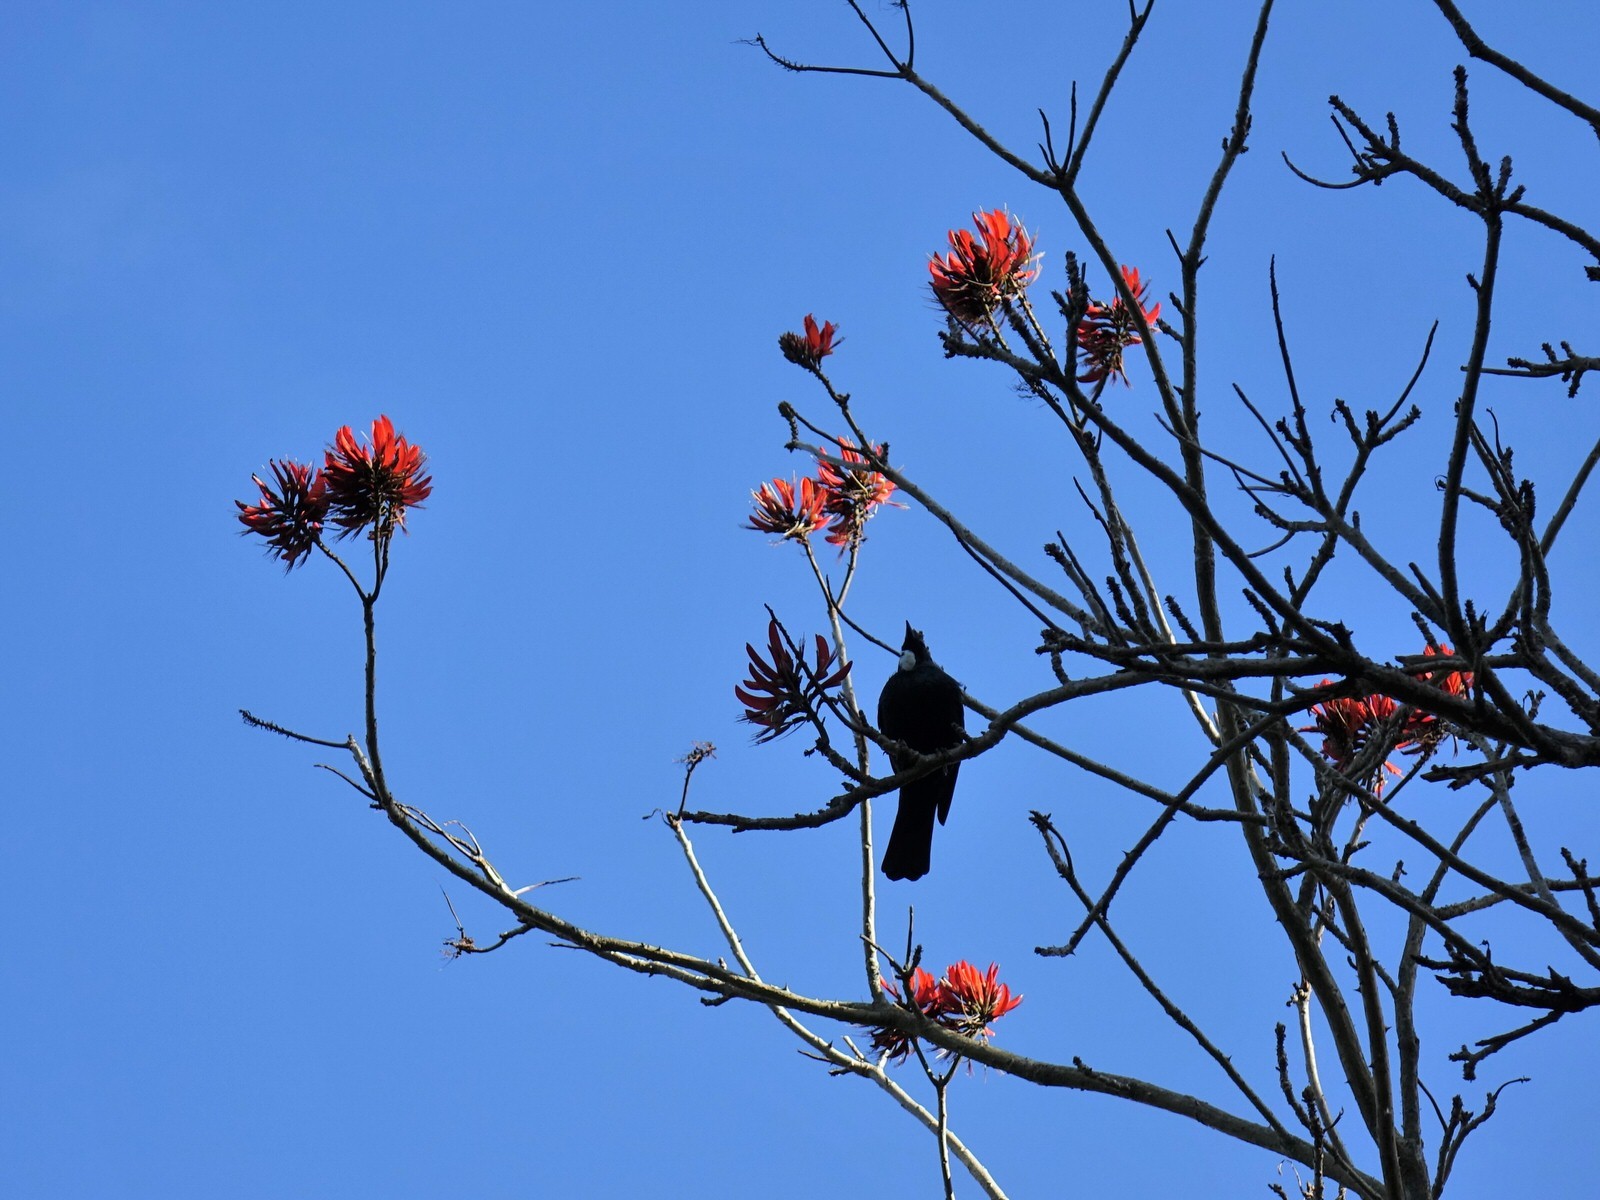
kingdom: Animalia
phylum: Chordata
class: Aves
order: Passeriformes
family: Meliphagidae
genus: Prosthemadera
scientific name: Prosthemadera novaeseelandiae
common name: Tui
